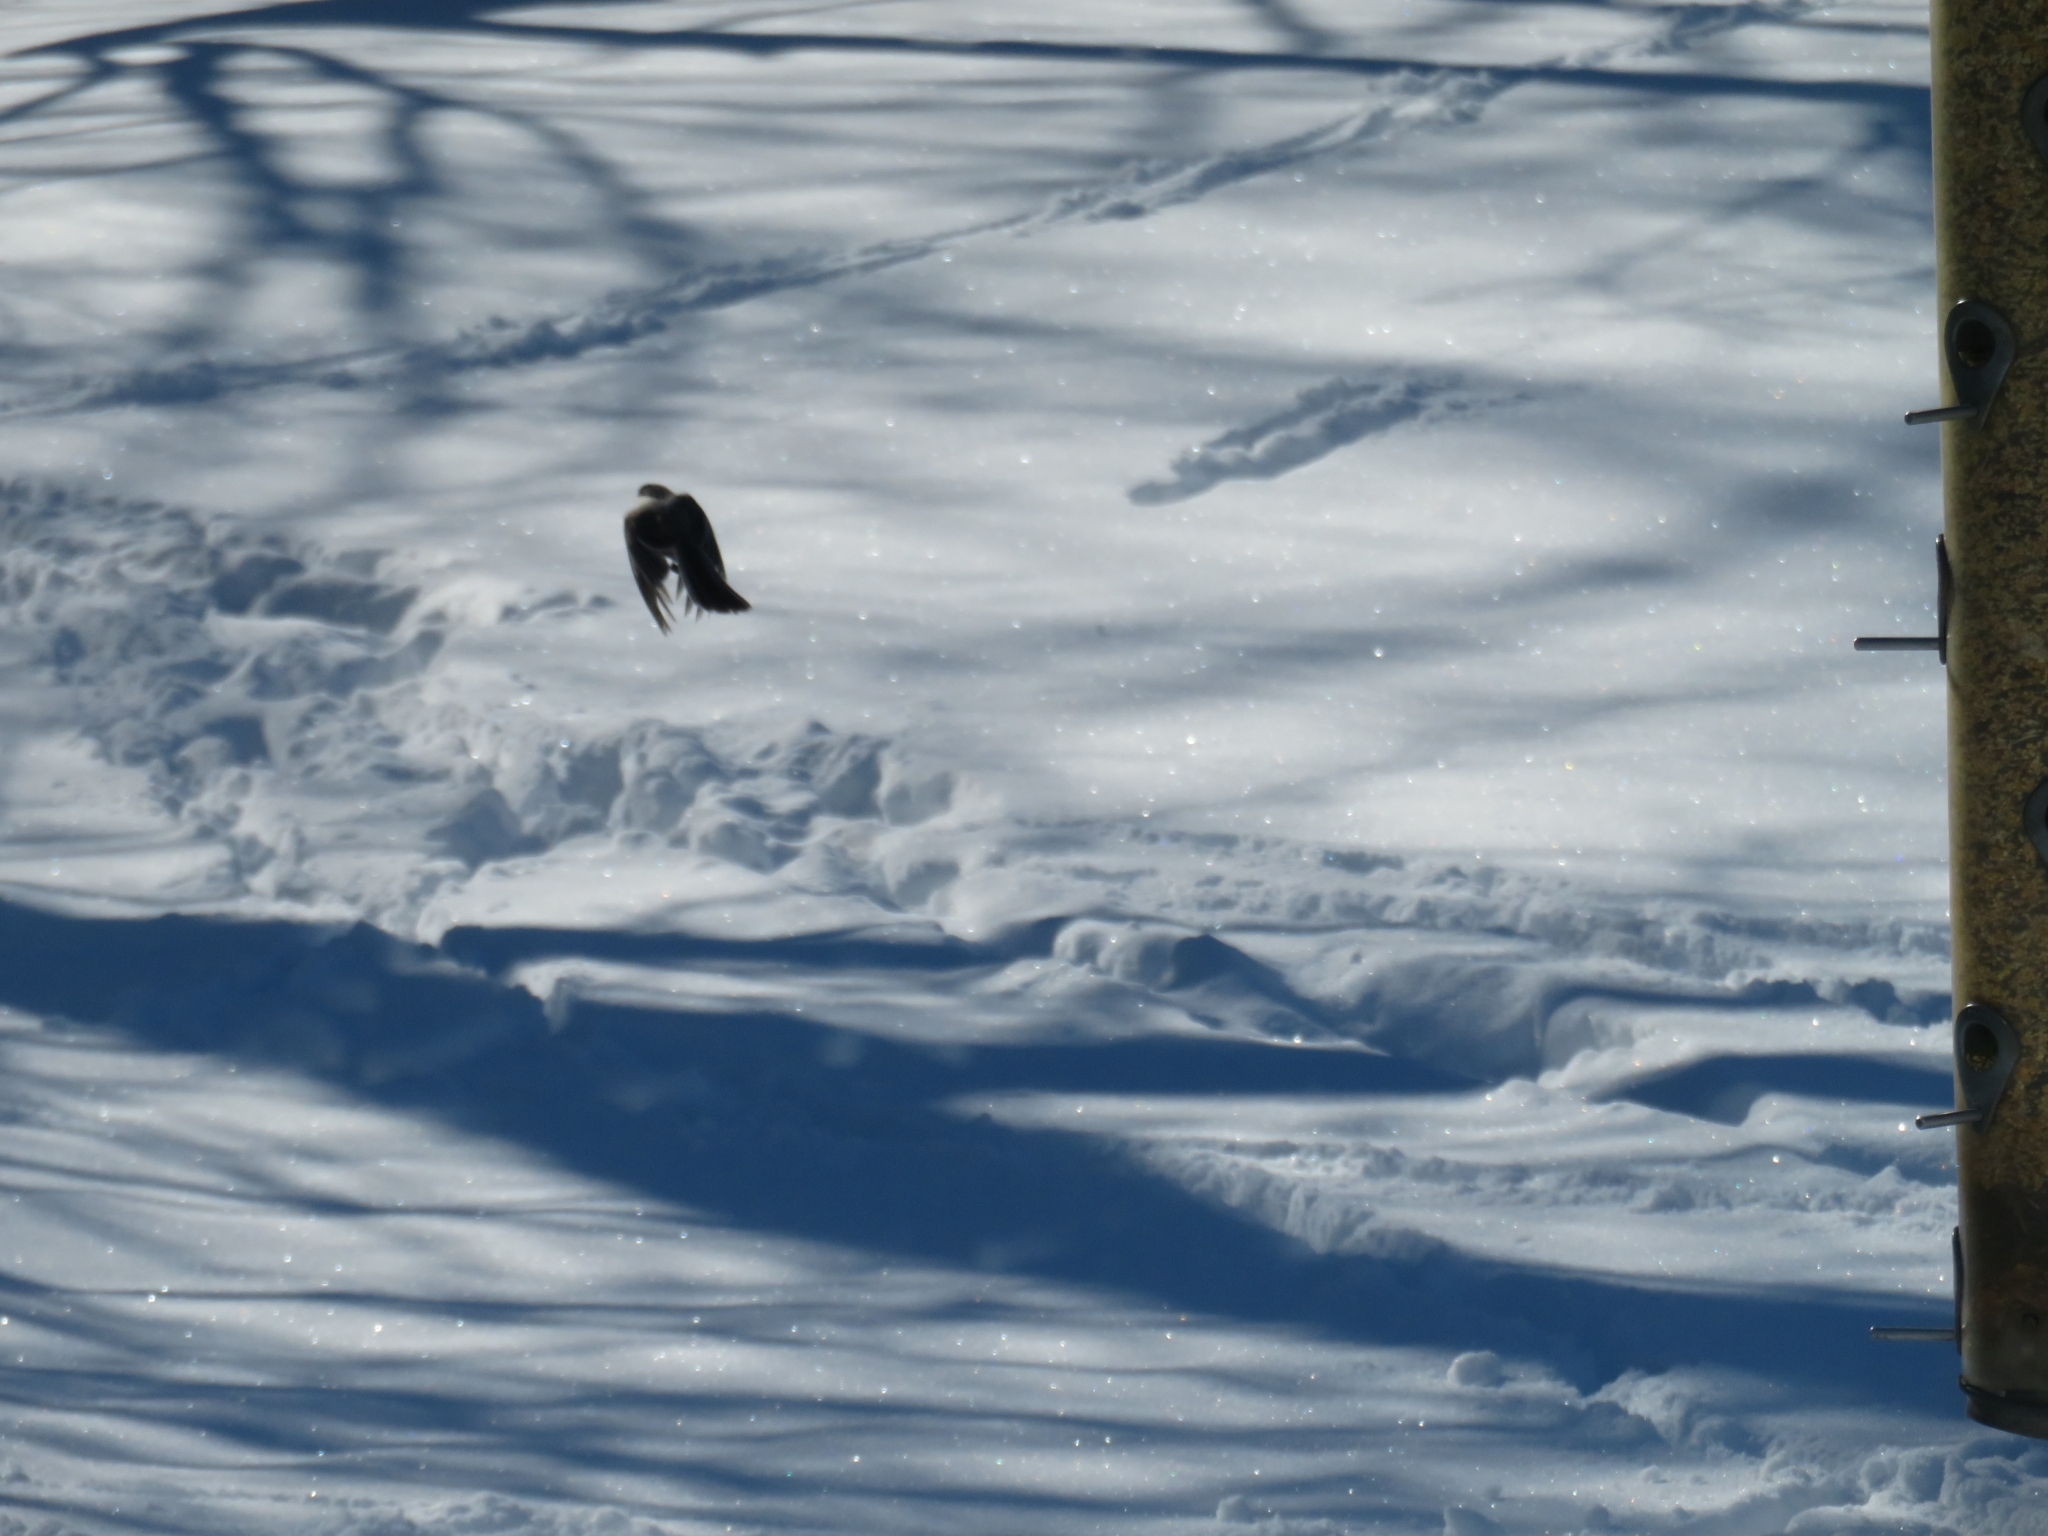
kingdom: Animalia
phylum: Chordata
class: Aves
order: Passeriformes
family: Paridae
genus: Poecile
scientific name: Poecile atricapillus
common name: Black-capped chickadee
